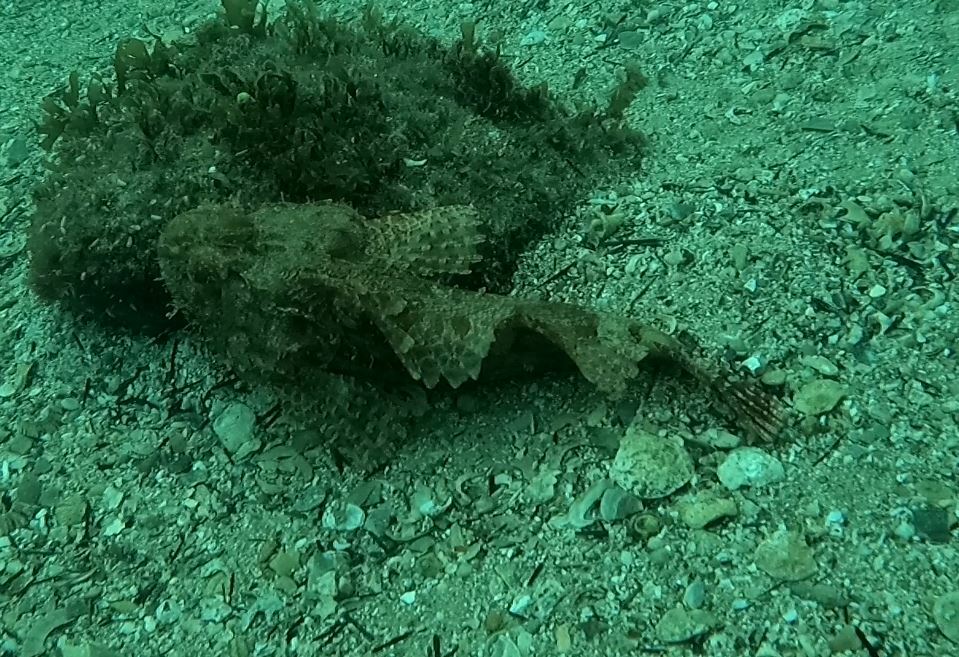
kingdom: Animalia
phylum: Chordata
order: Scorpaeniformes
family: Scorpaenidae
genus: Scorpaena
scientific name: Scorpaena jacksoniensis
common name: Eastern red scorpionfish
